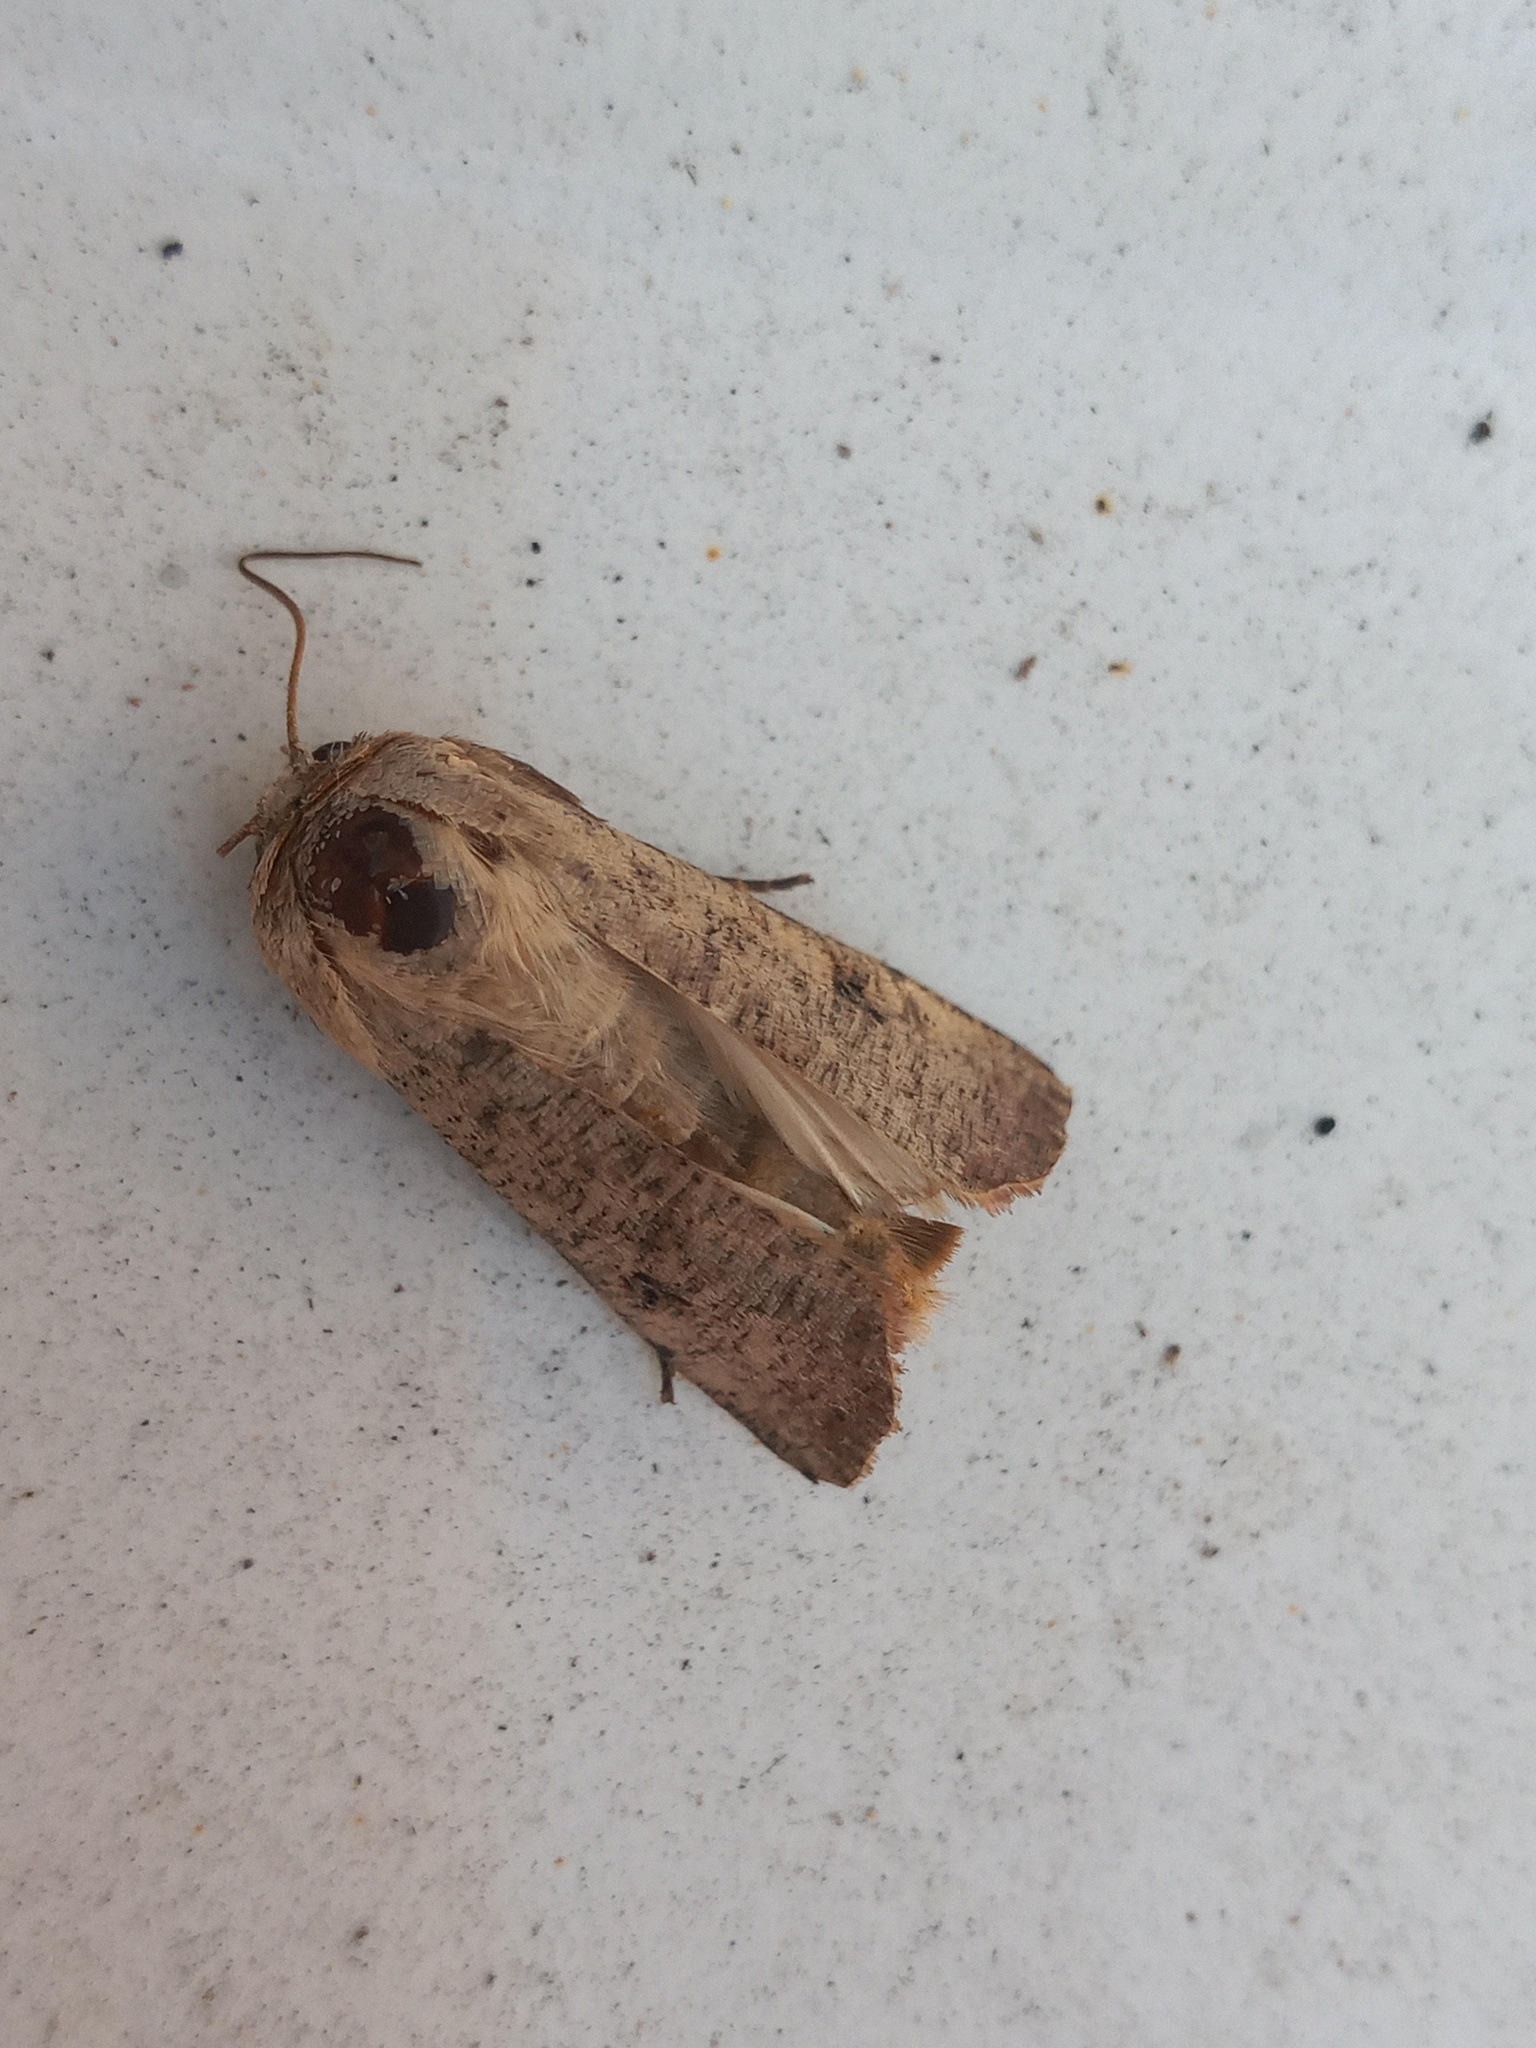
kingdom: Animalia
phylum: Arthropoda
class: Insecta
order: Lepidoptera
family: Noctuidae
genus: Anicla
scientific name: Anicla infecta
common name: Green cutworm
